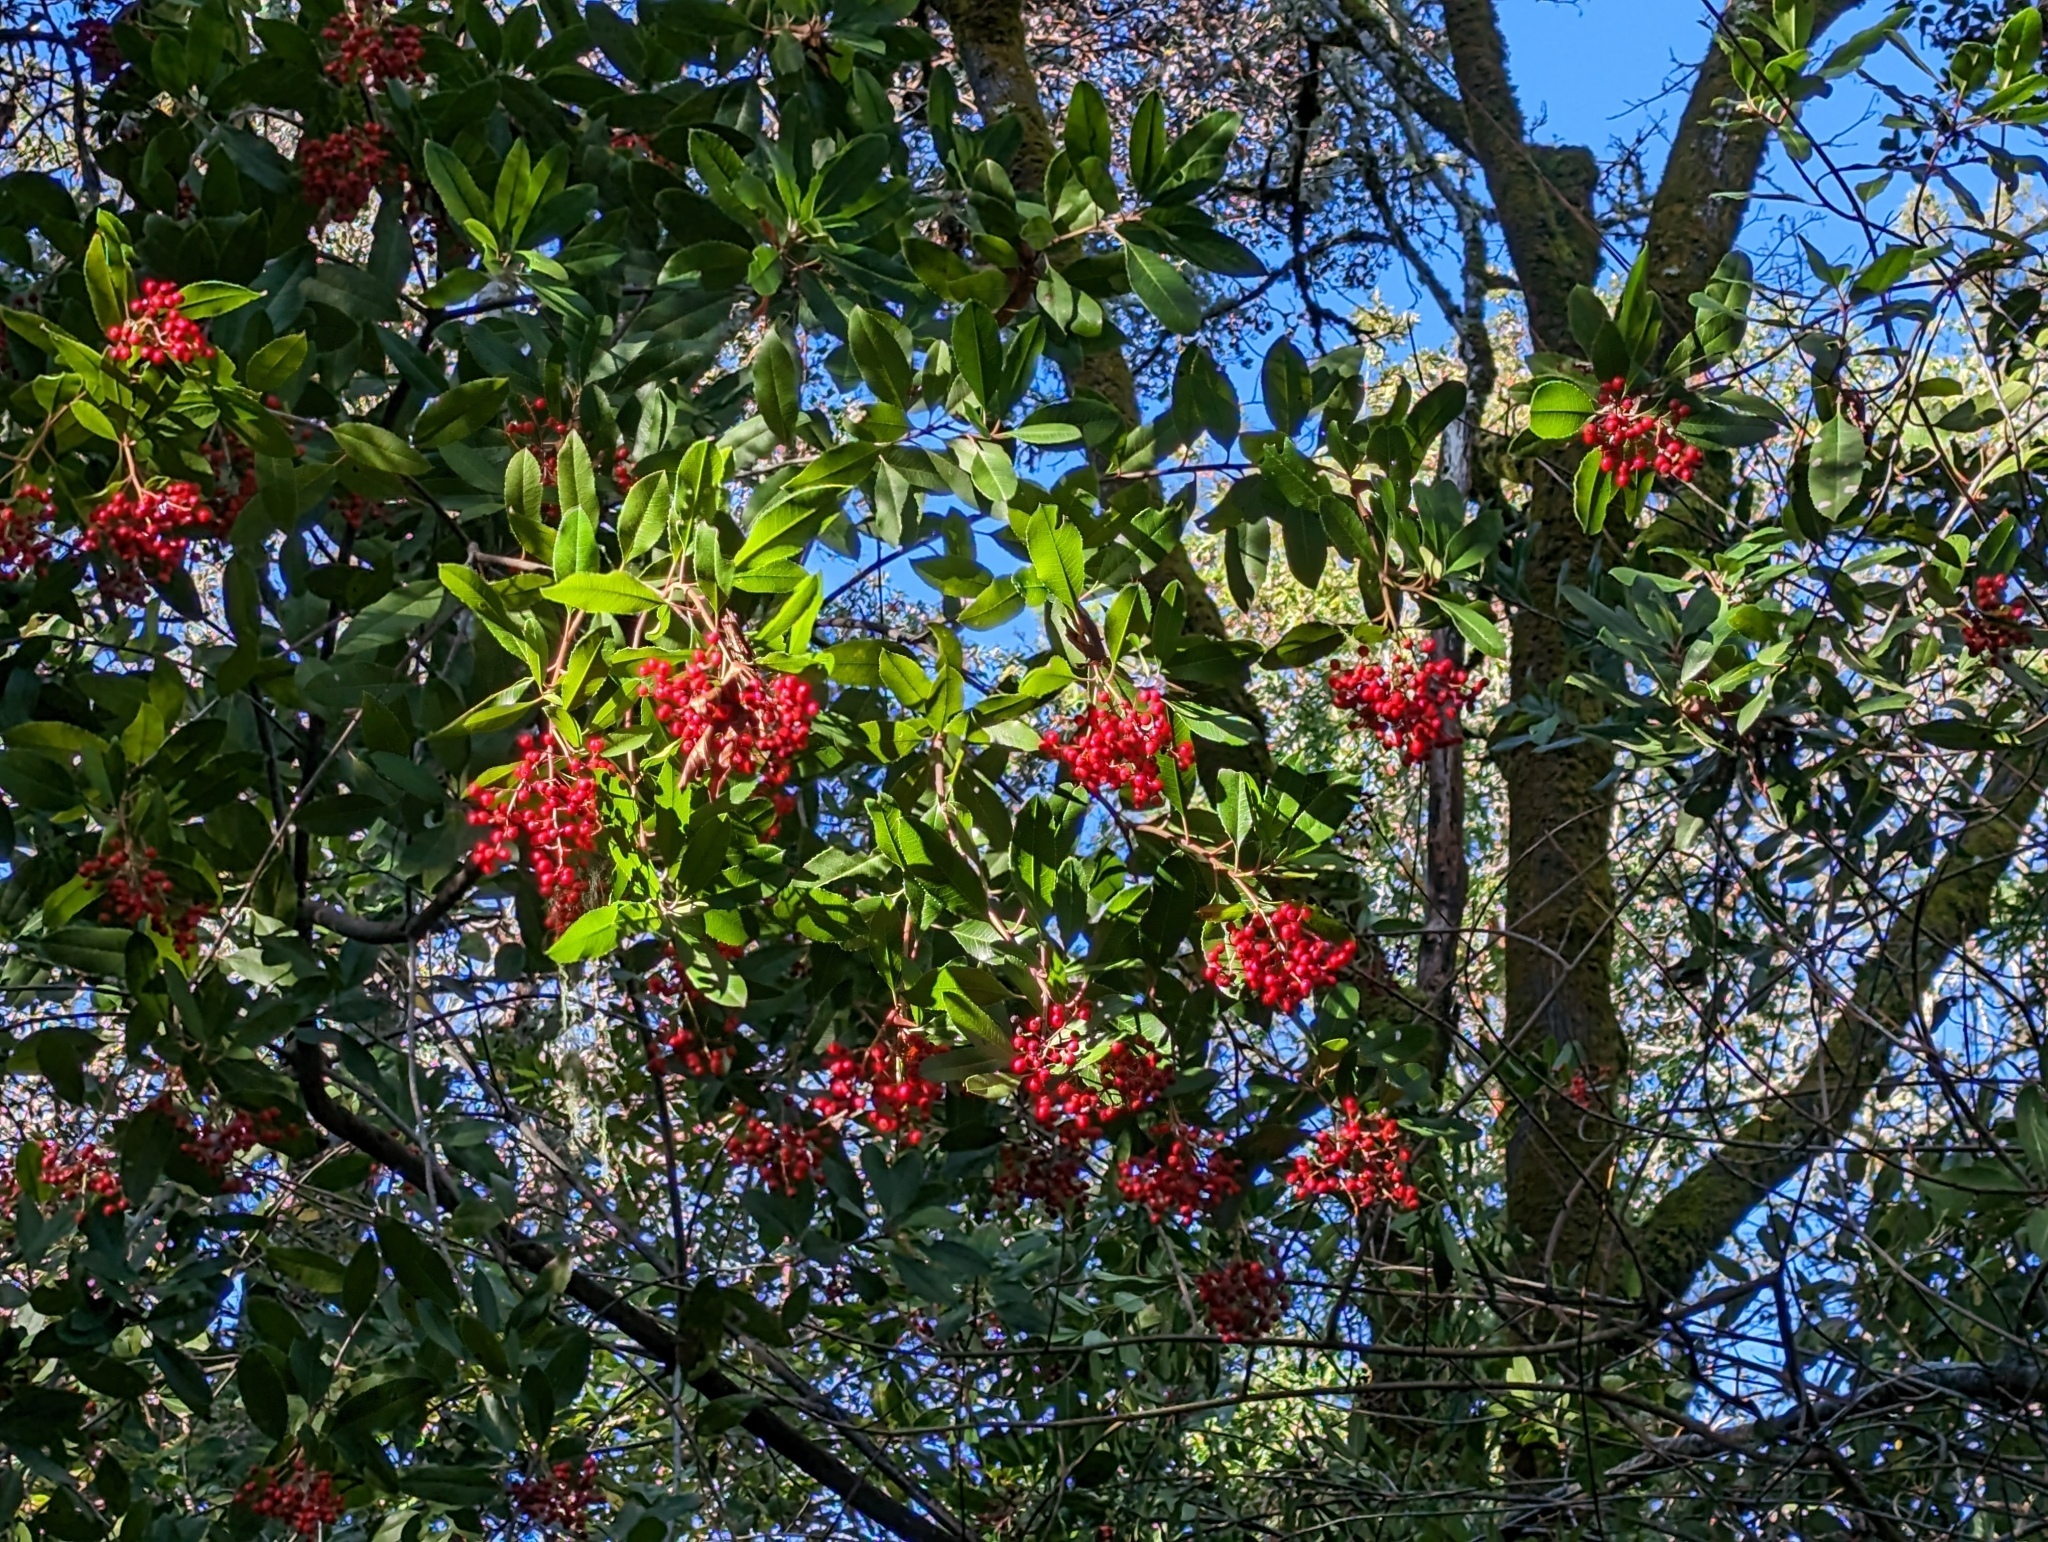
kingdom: Plantae
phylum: Tracheophyta
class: Magnoliopsida
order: Rosales
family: Rosaceae
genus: Heteromeles
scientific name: Heteromeles arbutifolia
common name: California-holly
